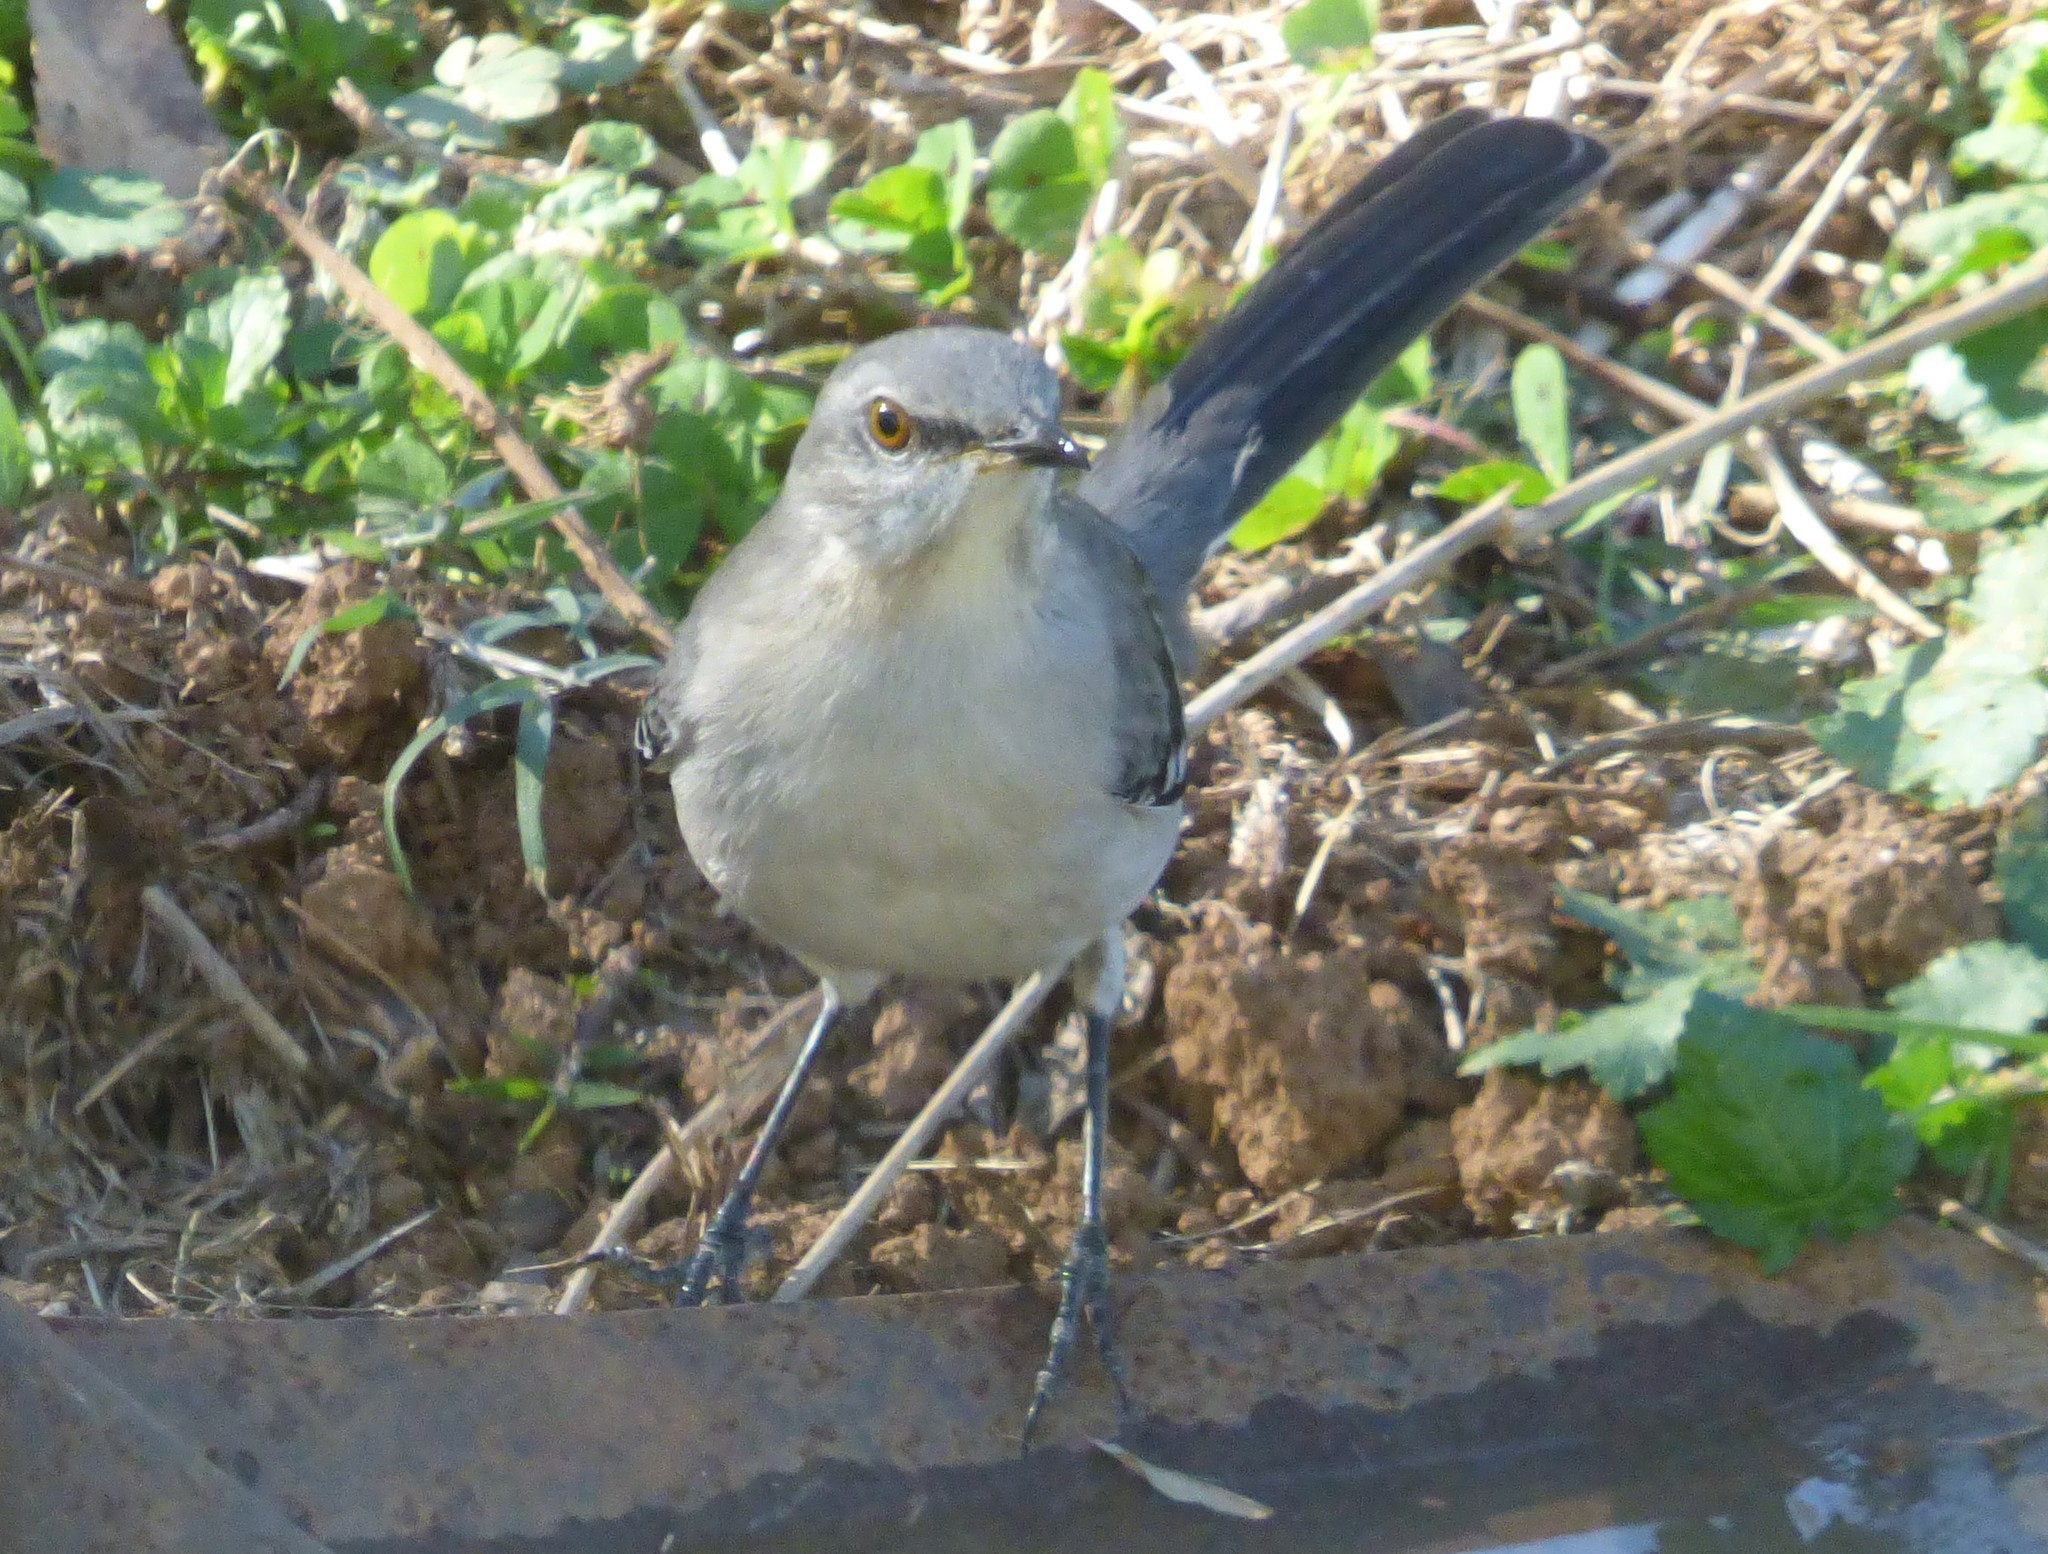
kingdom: Animalia
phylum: Chordata
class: Aves
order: Passeriformes
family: Mimidae
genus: Mimus
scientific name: Mimus polyglottos
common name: Northern mockingbird
